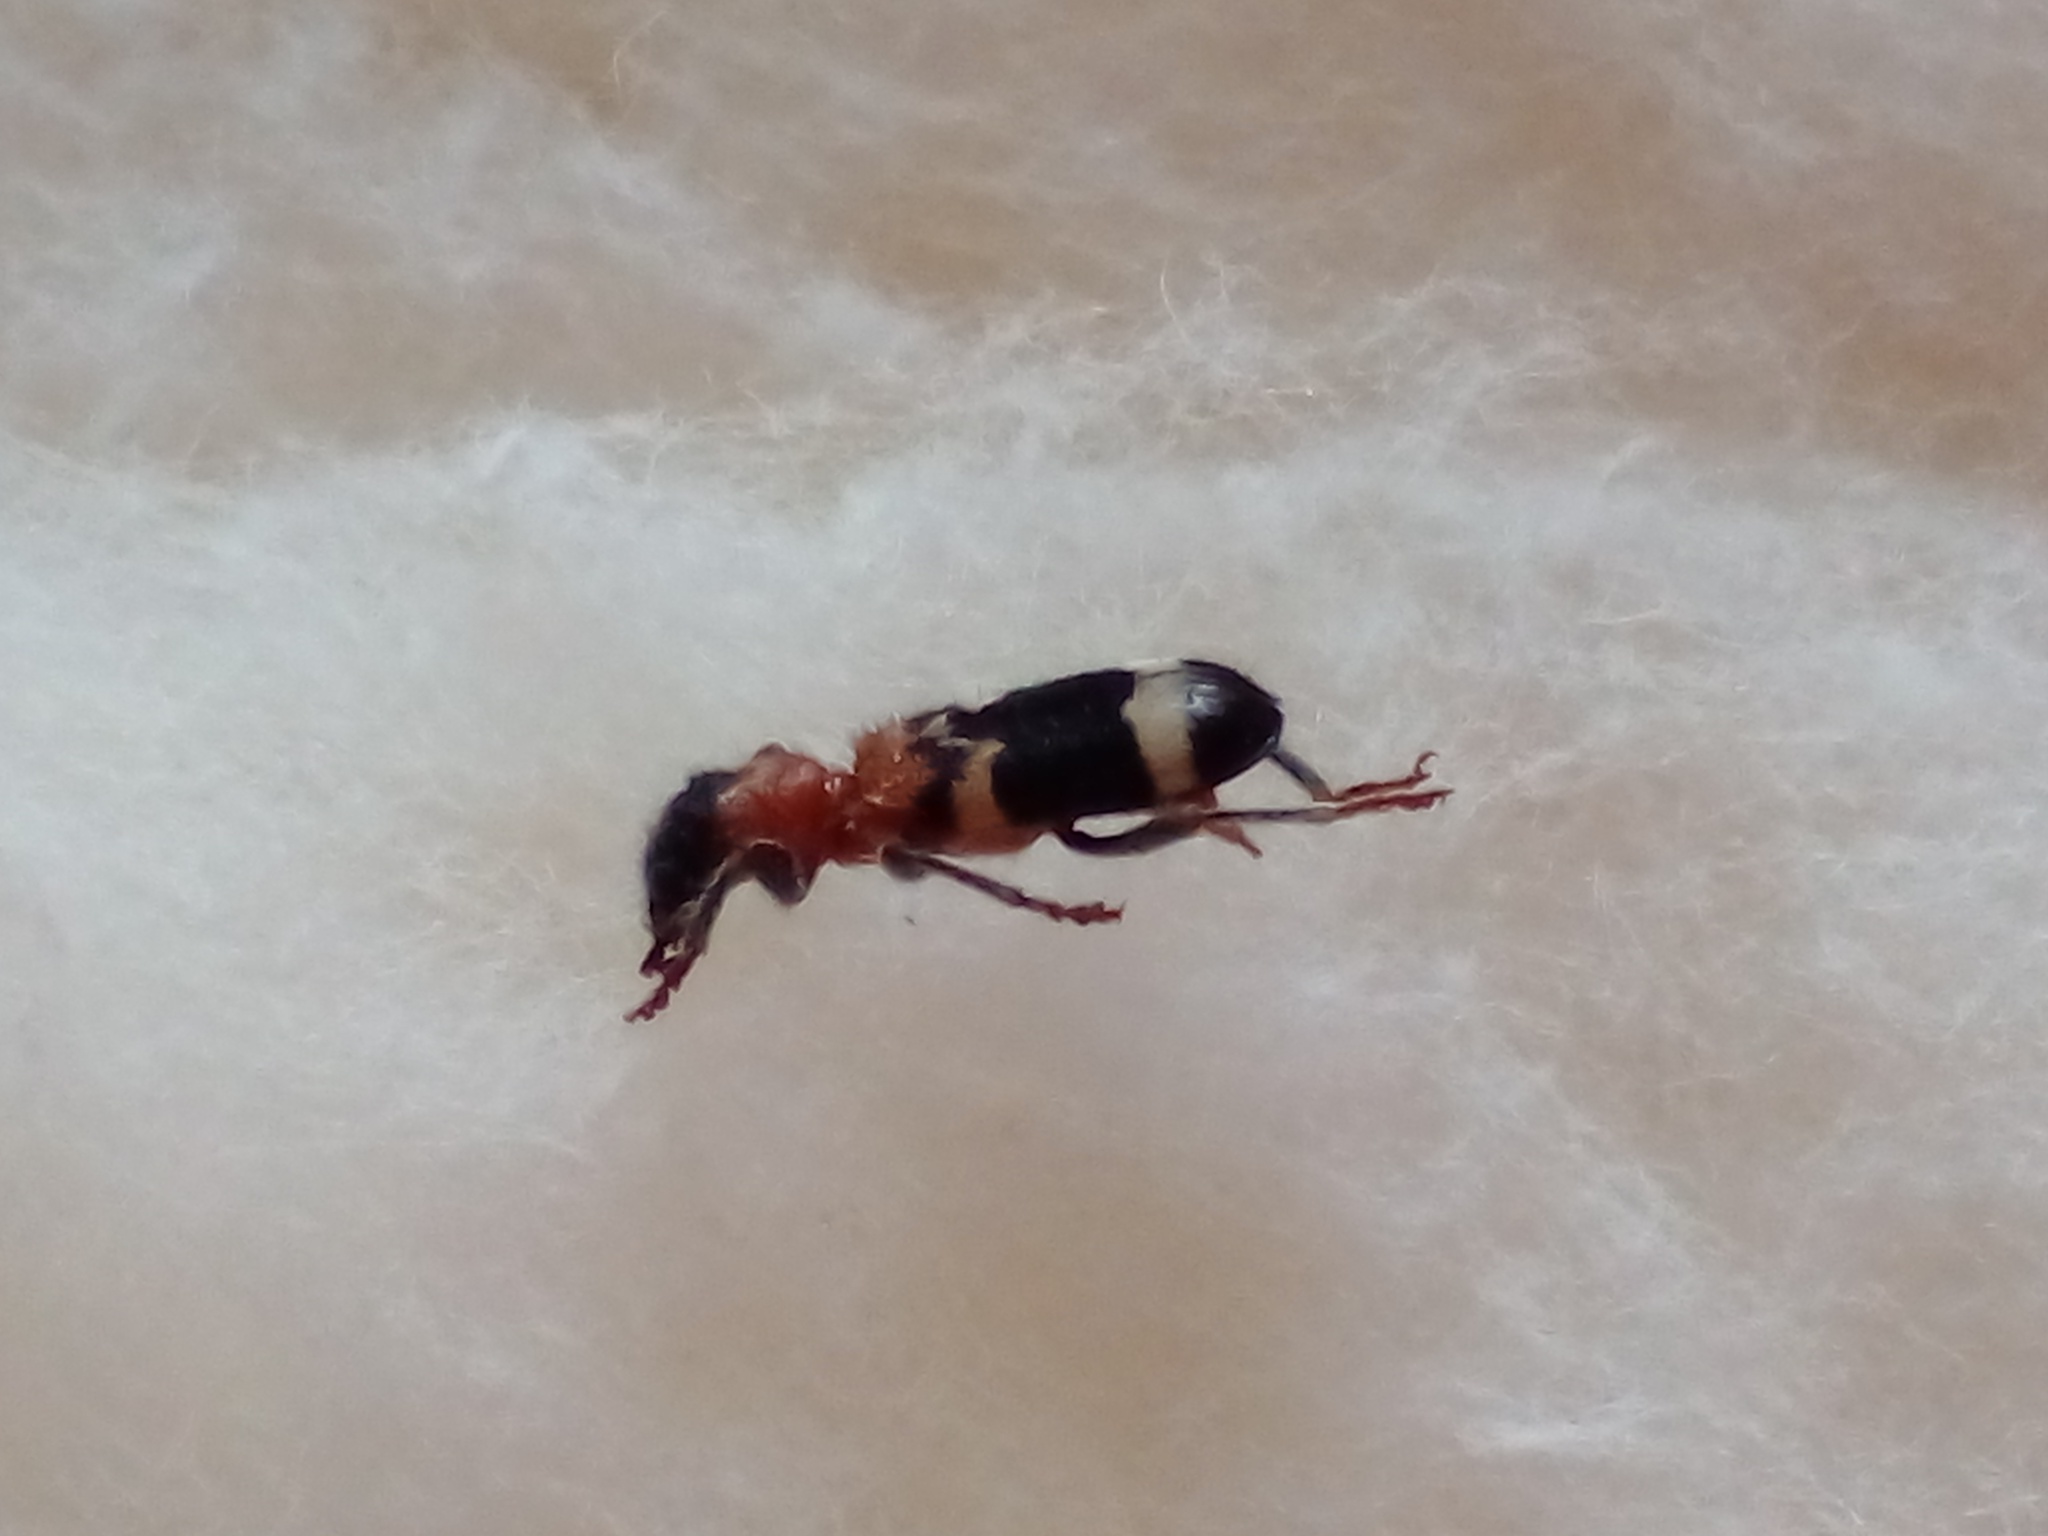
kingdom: Animalia
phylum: Arthropoda
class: Insecta
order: Coleoptera
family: Cleridae
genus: Thanasimus
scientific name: Thanasimus formicarius
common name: Ant beetle
